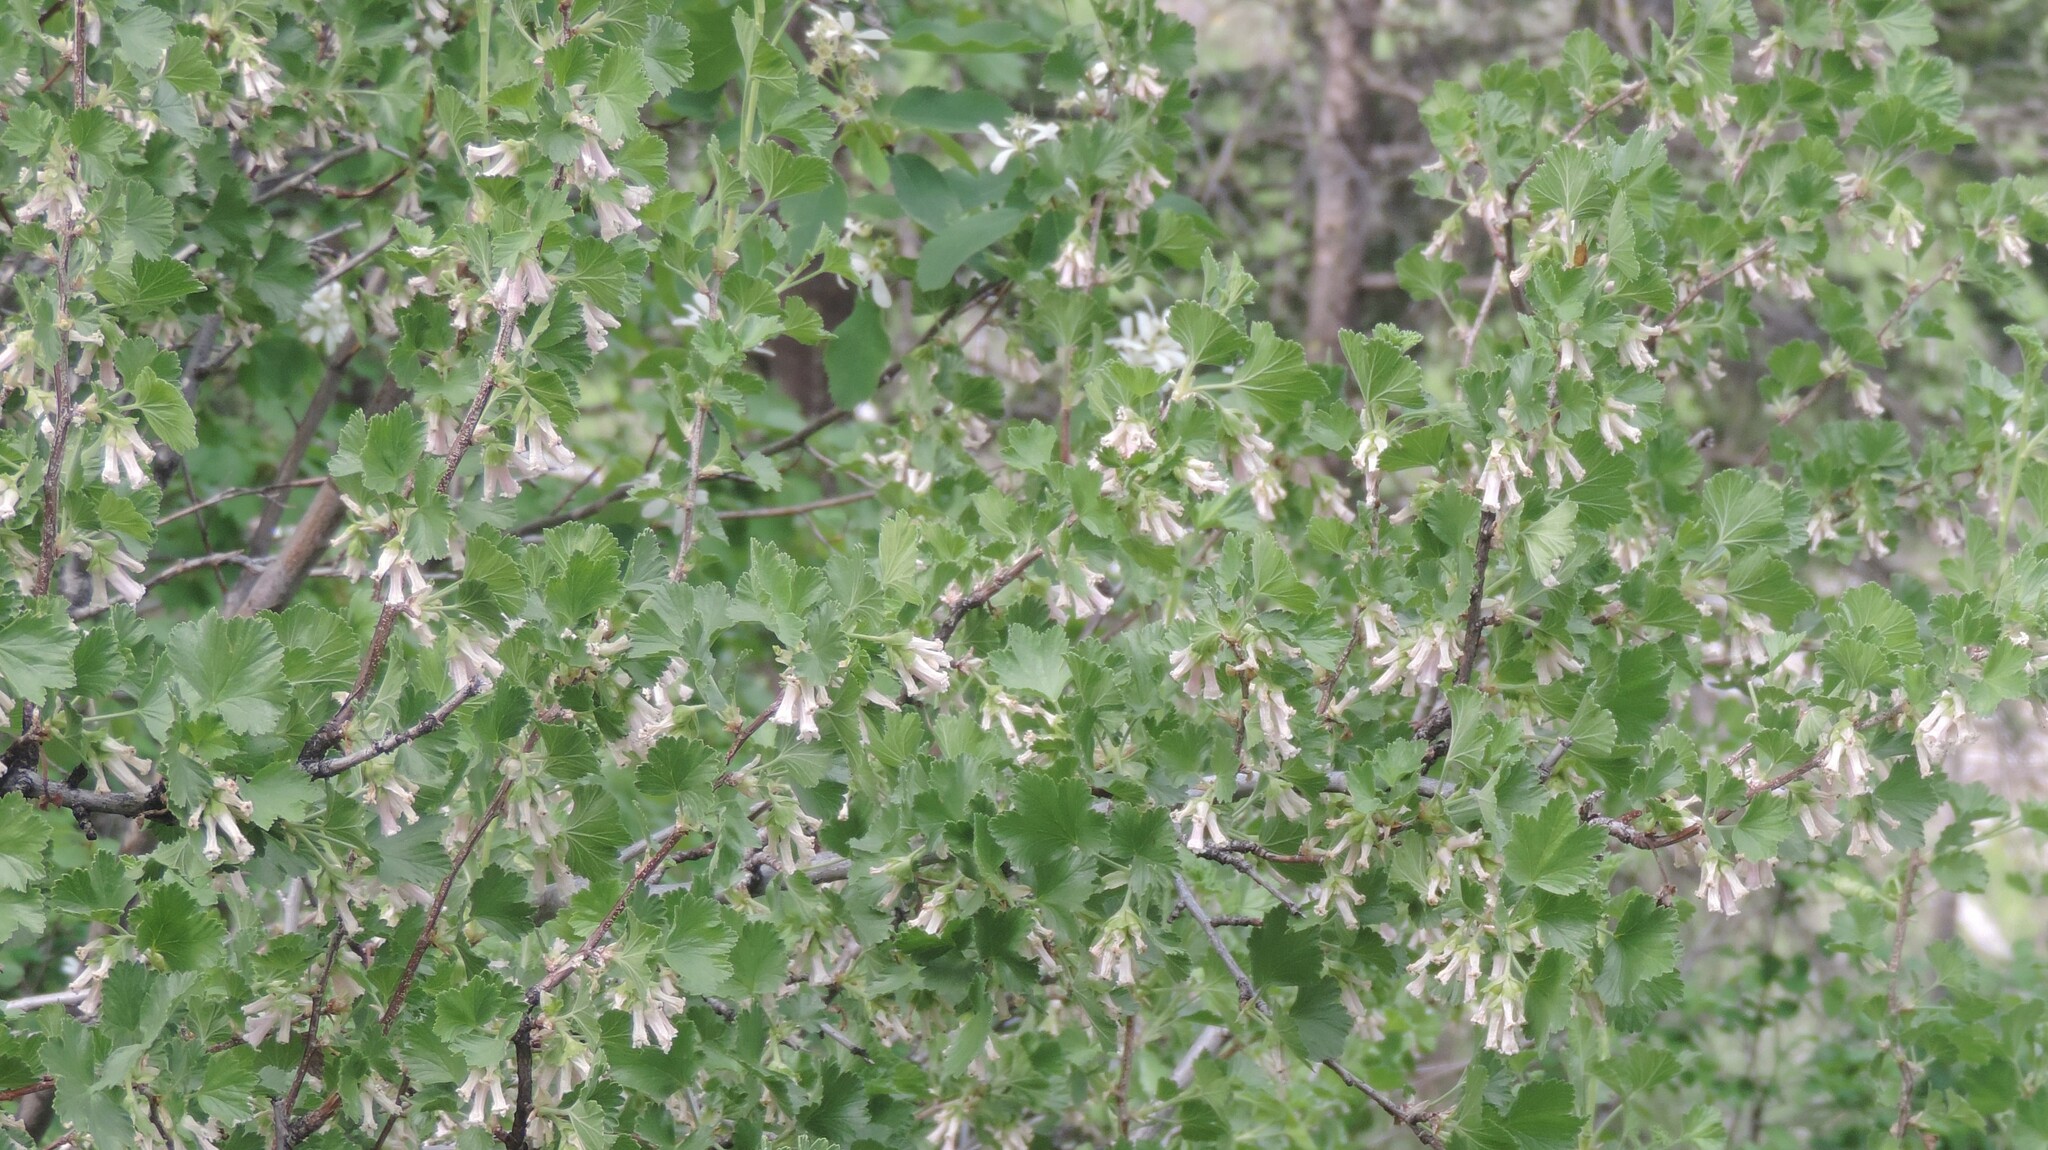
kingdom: Plantae
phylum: Tracheophyta
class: Magnoliopsida
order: Saxifragales
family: Grossulariaceae
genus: Ribes
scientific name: Ribes cereum
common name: Wax currant
